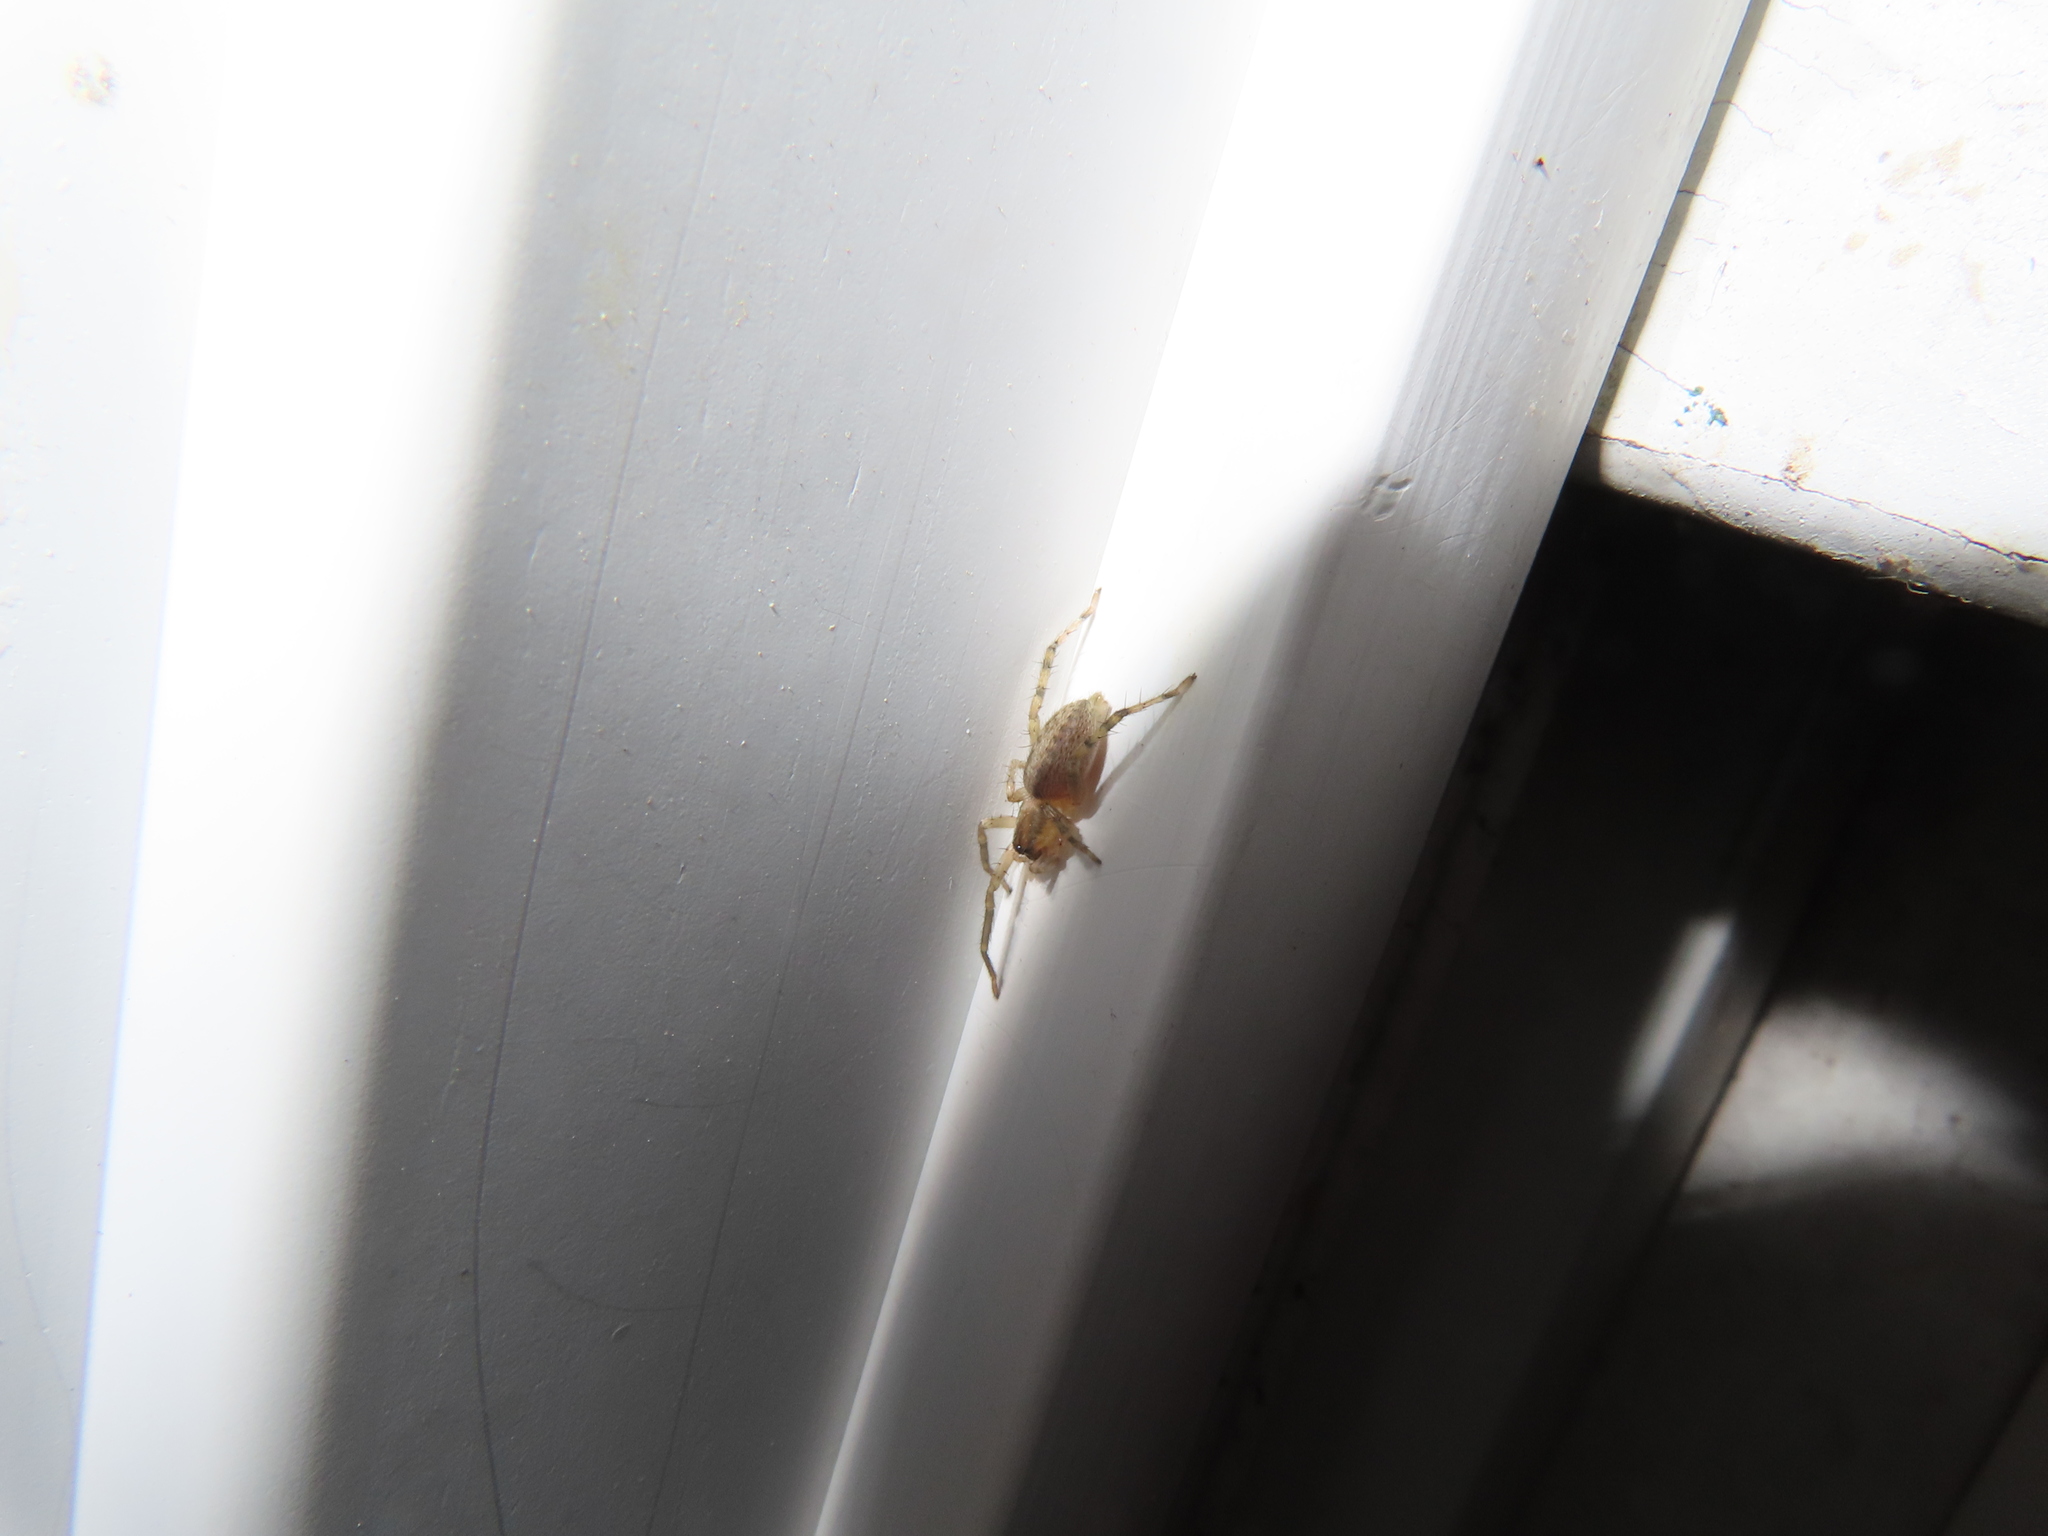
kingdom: Animalia
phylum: Arthropoda
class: Arachnida
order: Araneae
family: Anyphaenidae
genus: Hibana
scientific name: Hibana gracilis
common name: Garden ghost spider
